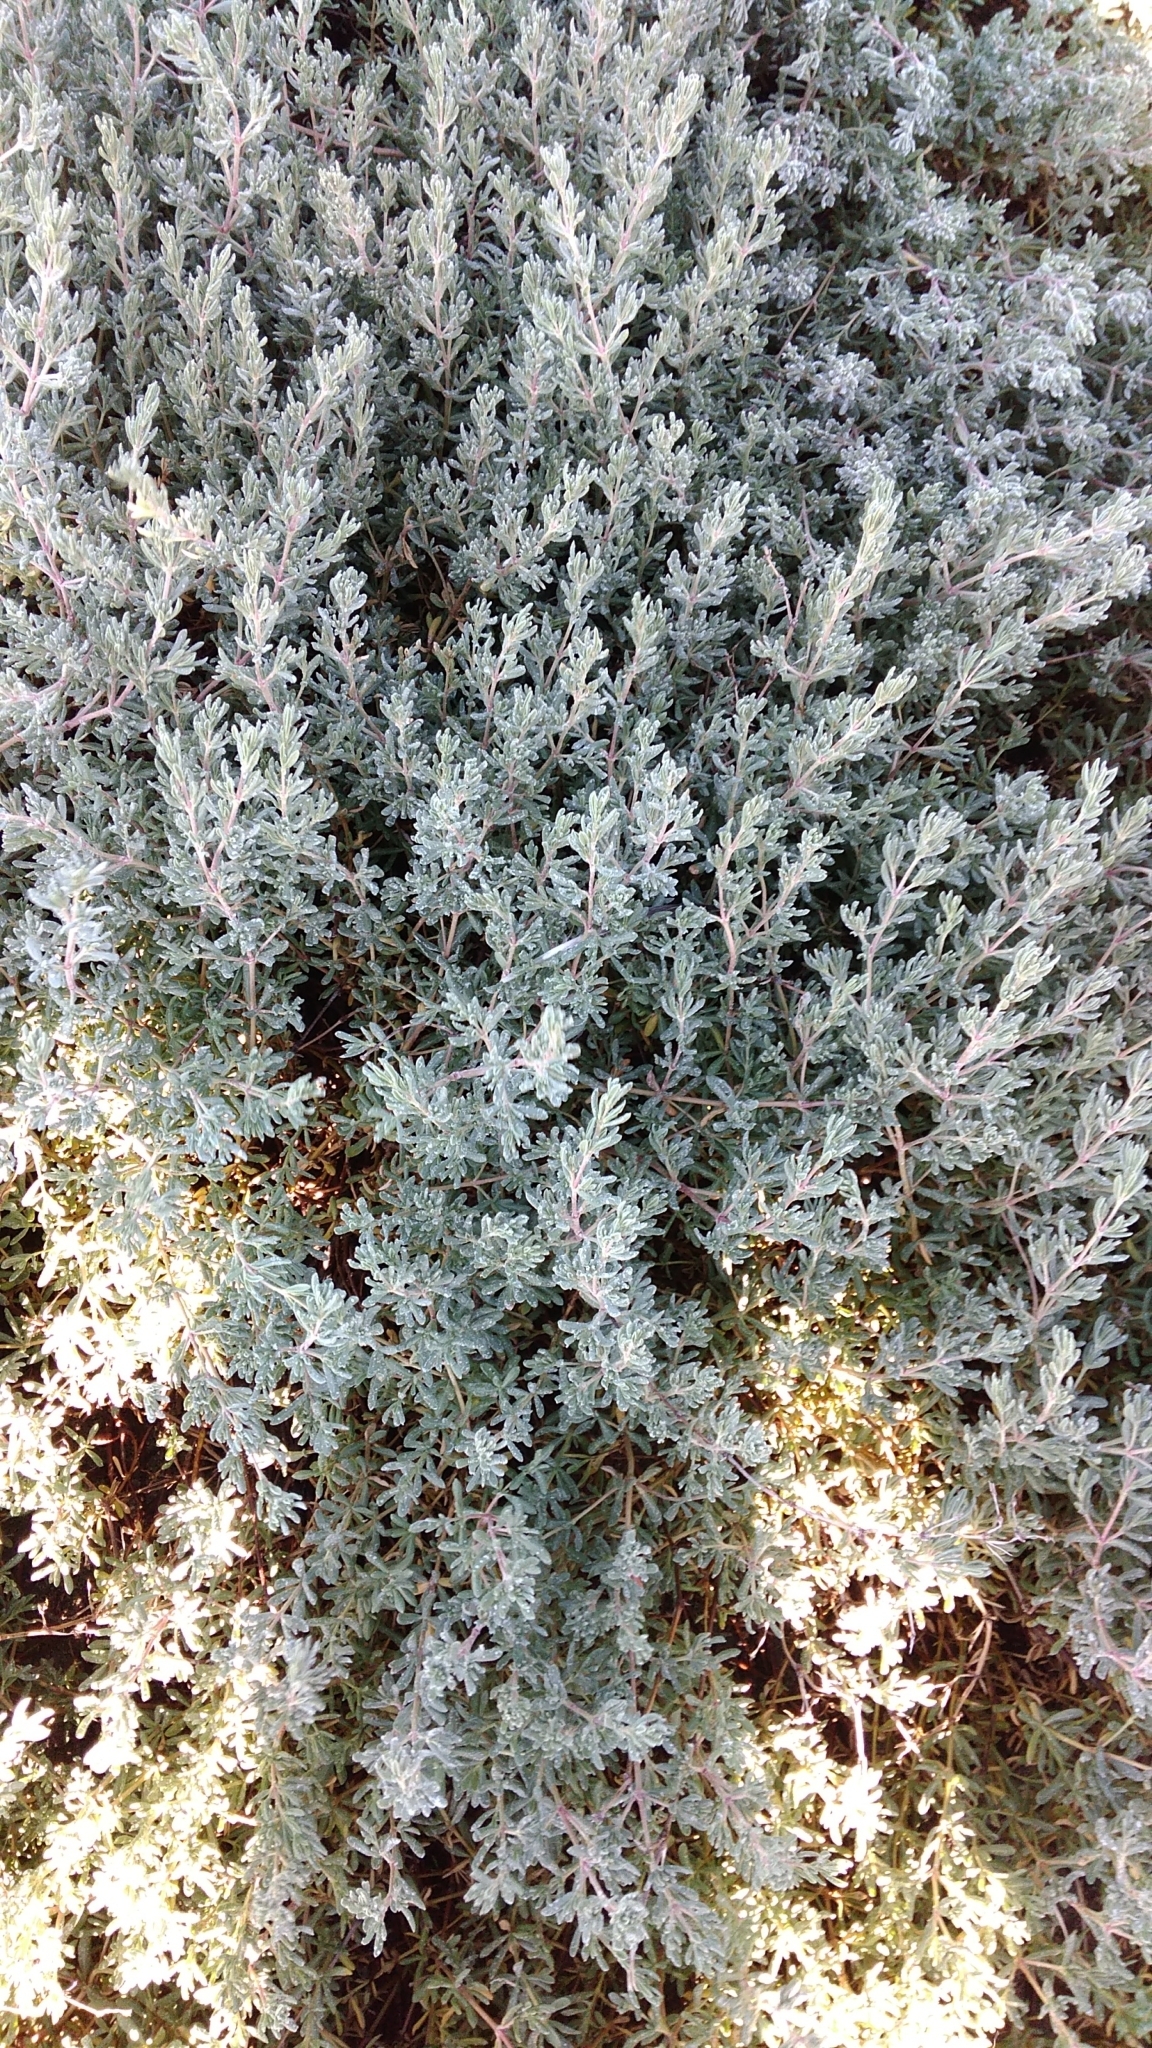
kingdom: Plantae
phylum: Tracheophyta
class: Magnoliopsida
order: Caryophyllales
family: Frankeniaceae
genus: Frankenia
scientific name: Frankenia salina
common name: Alkali seaheath
